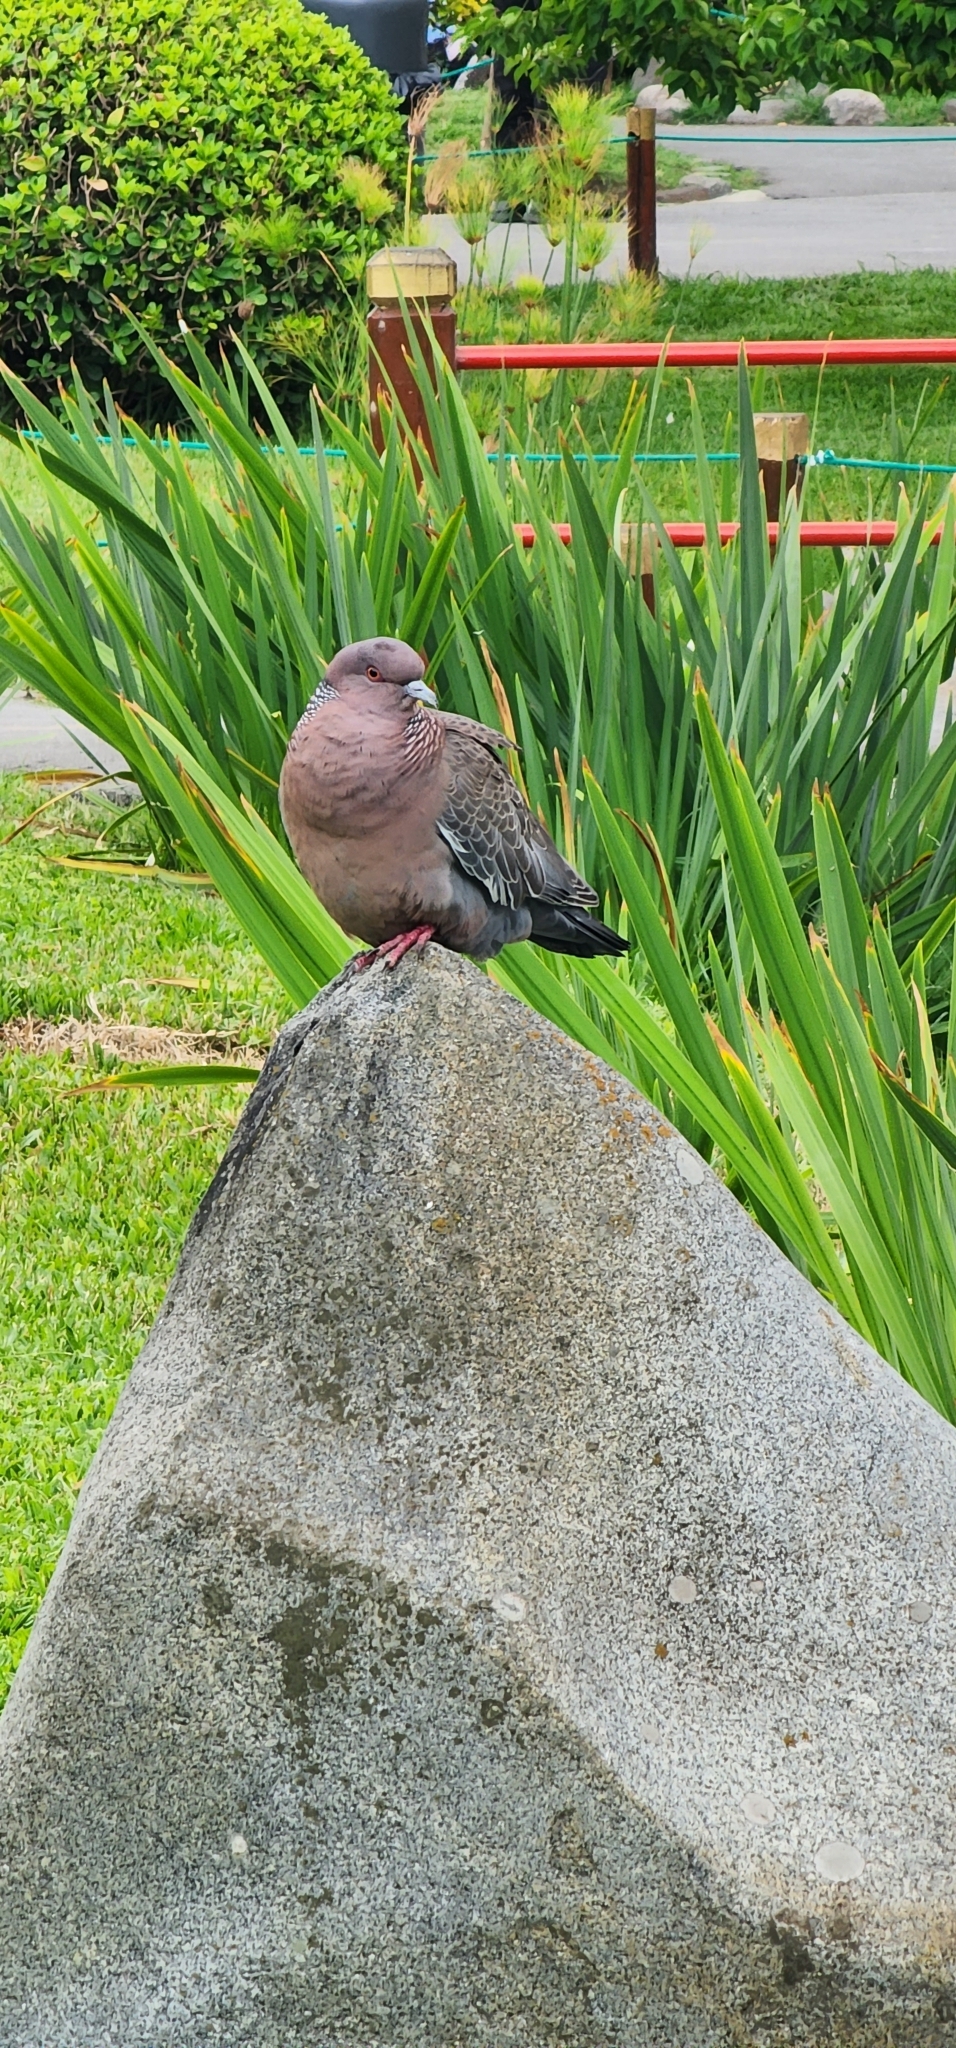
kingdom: Animalia
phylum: Chordata
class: Aves
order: Columbiformes
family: Columbidae
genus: Patagioenas
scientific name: Patagioenas picazuro
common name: Picazuro pigeon
